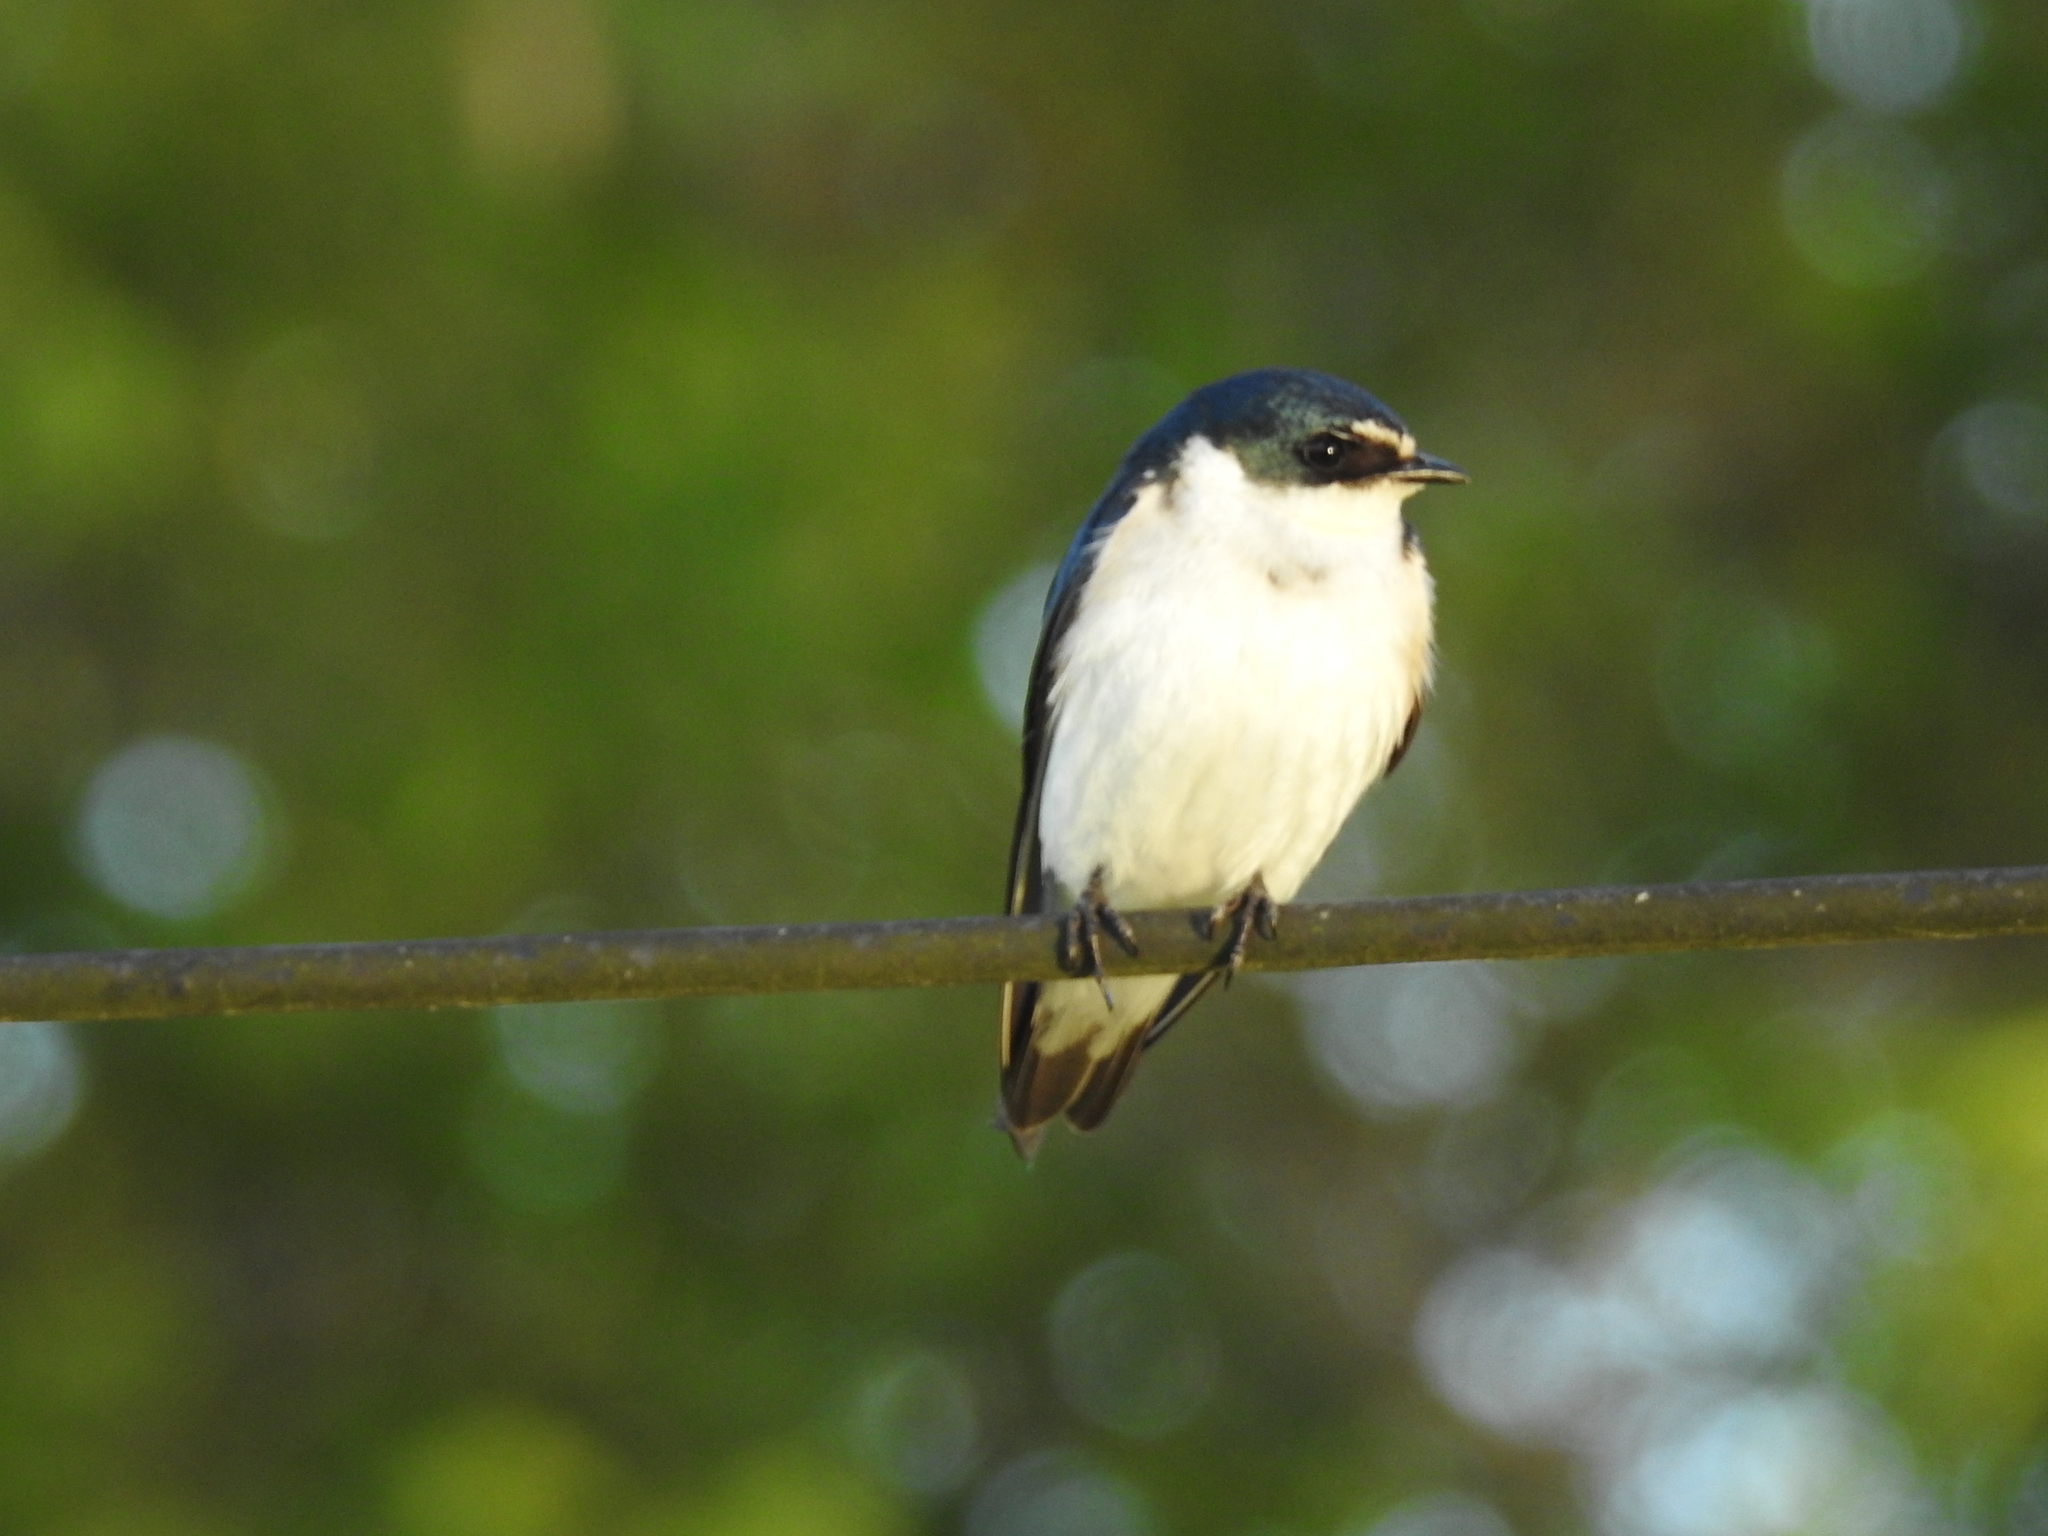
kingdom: Animalia
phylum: Chordata
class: Aves
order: Passeriformes
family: Hirundinidae
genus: Tachycineta
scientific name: Tachycineta leucorrhoa
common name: White-rumped swallow
